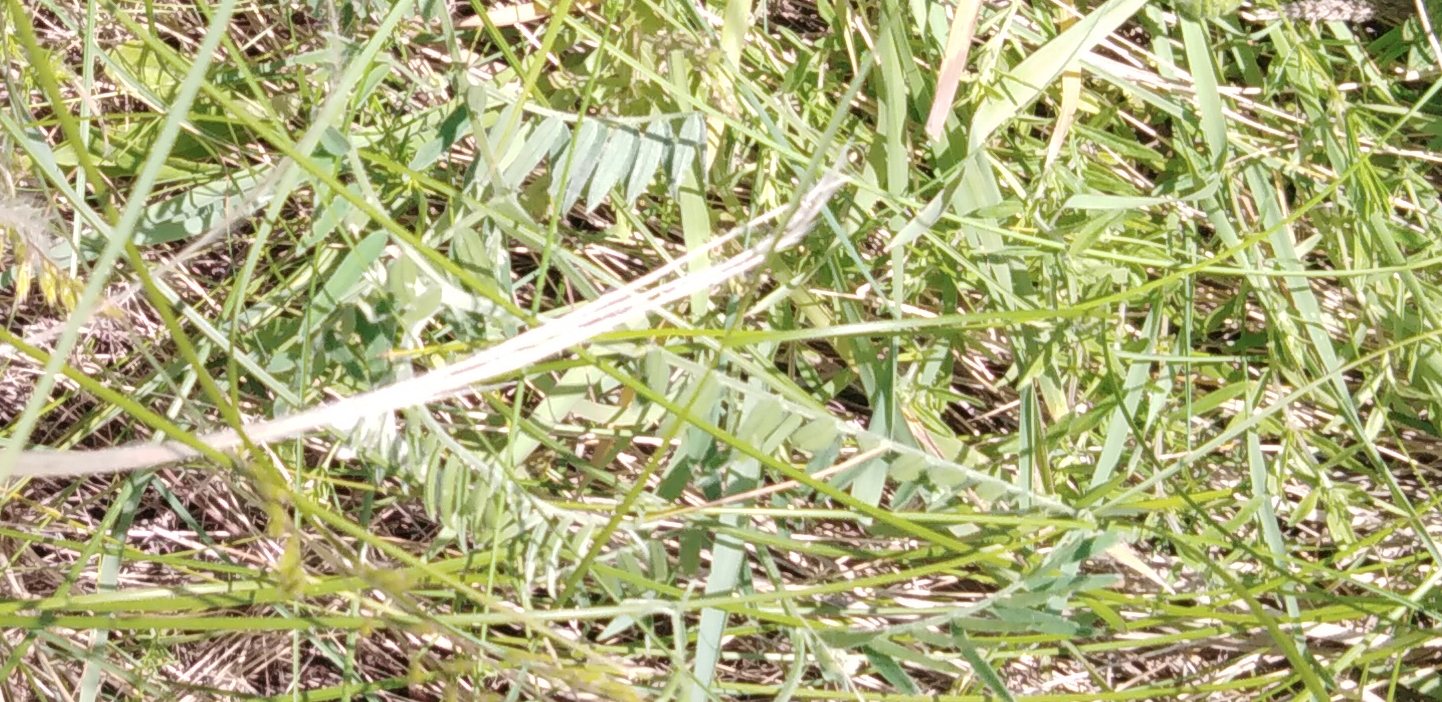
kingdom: Plantae
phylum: Tracheophyta
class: Magnoliopsida
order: Fabales
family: Fabaceae
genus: Vicia
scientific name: Vicia cracca
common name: Bird vetch
